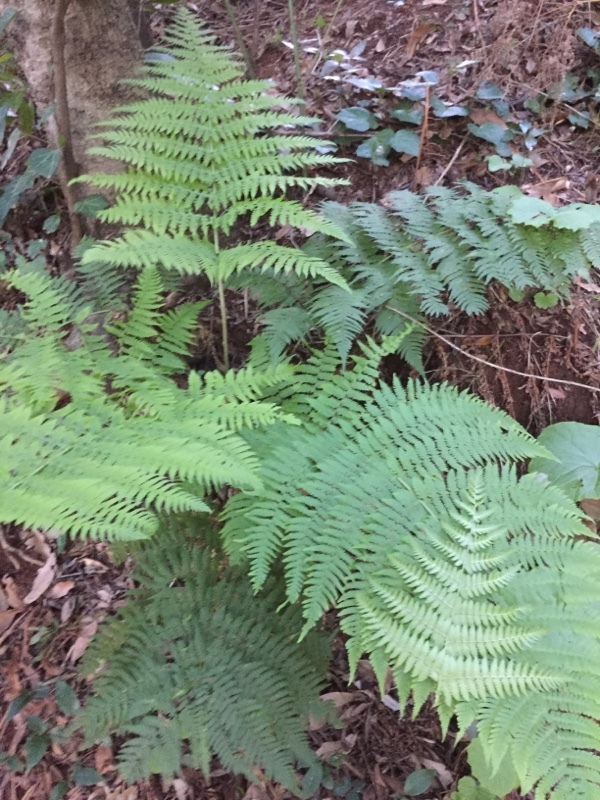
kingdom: Plantae
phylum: Tracheophyta
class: Polypodiopsida
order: Polypodiales
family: Dryopteridaceae
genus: Dryopteris
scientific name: Dryopteris oligodonta
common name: Canarian male-fern
